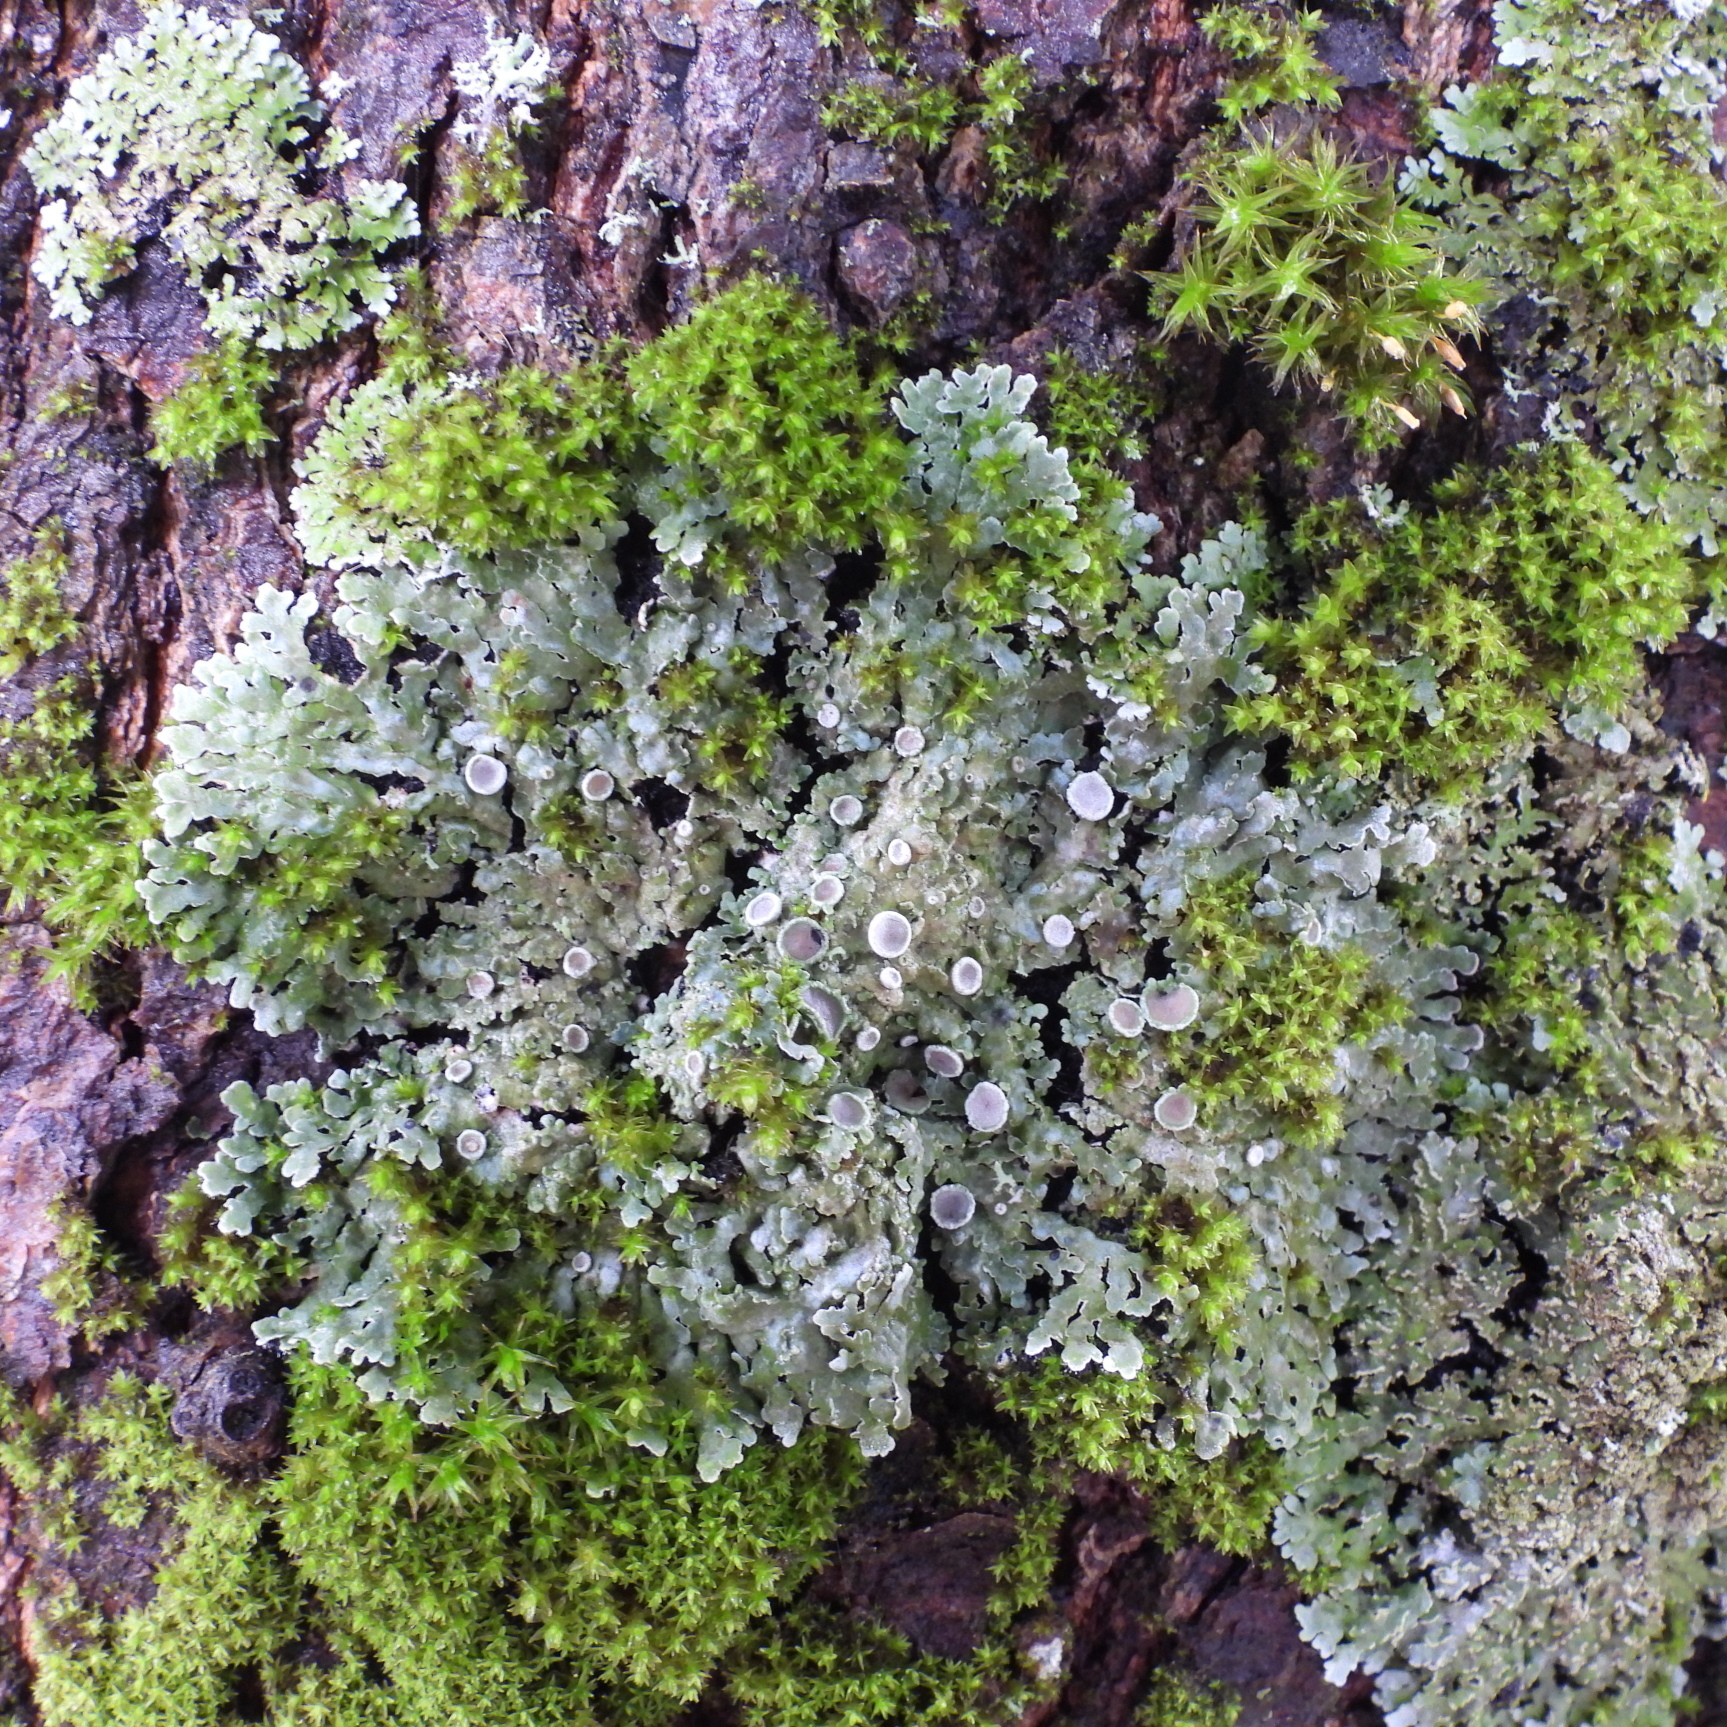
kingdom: Fungi
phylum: Ascomycota
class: Lecanoromycetes
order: Caliciales
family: Physciaceae
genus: Physconia
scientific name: Physconia distorta
